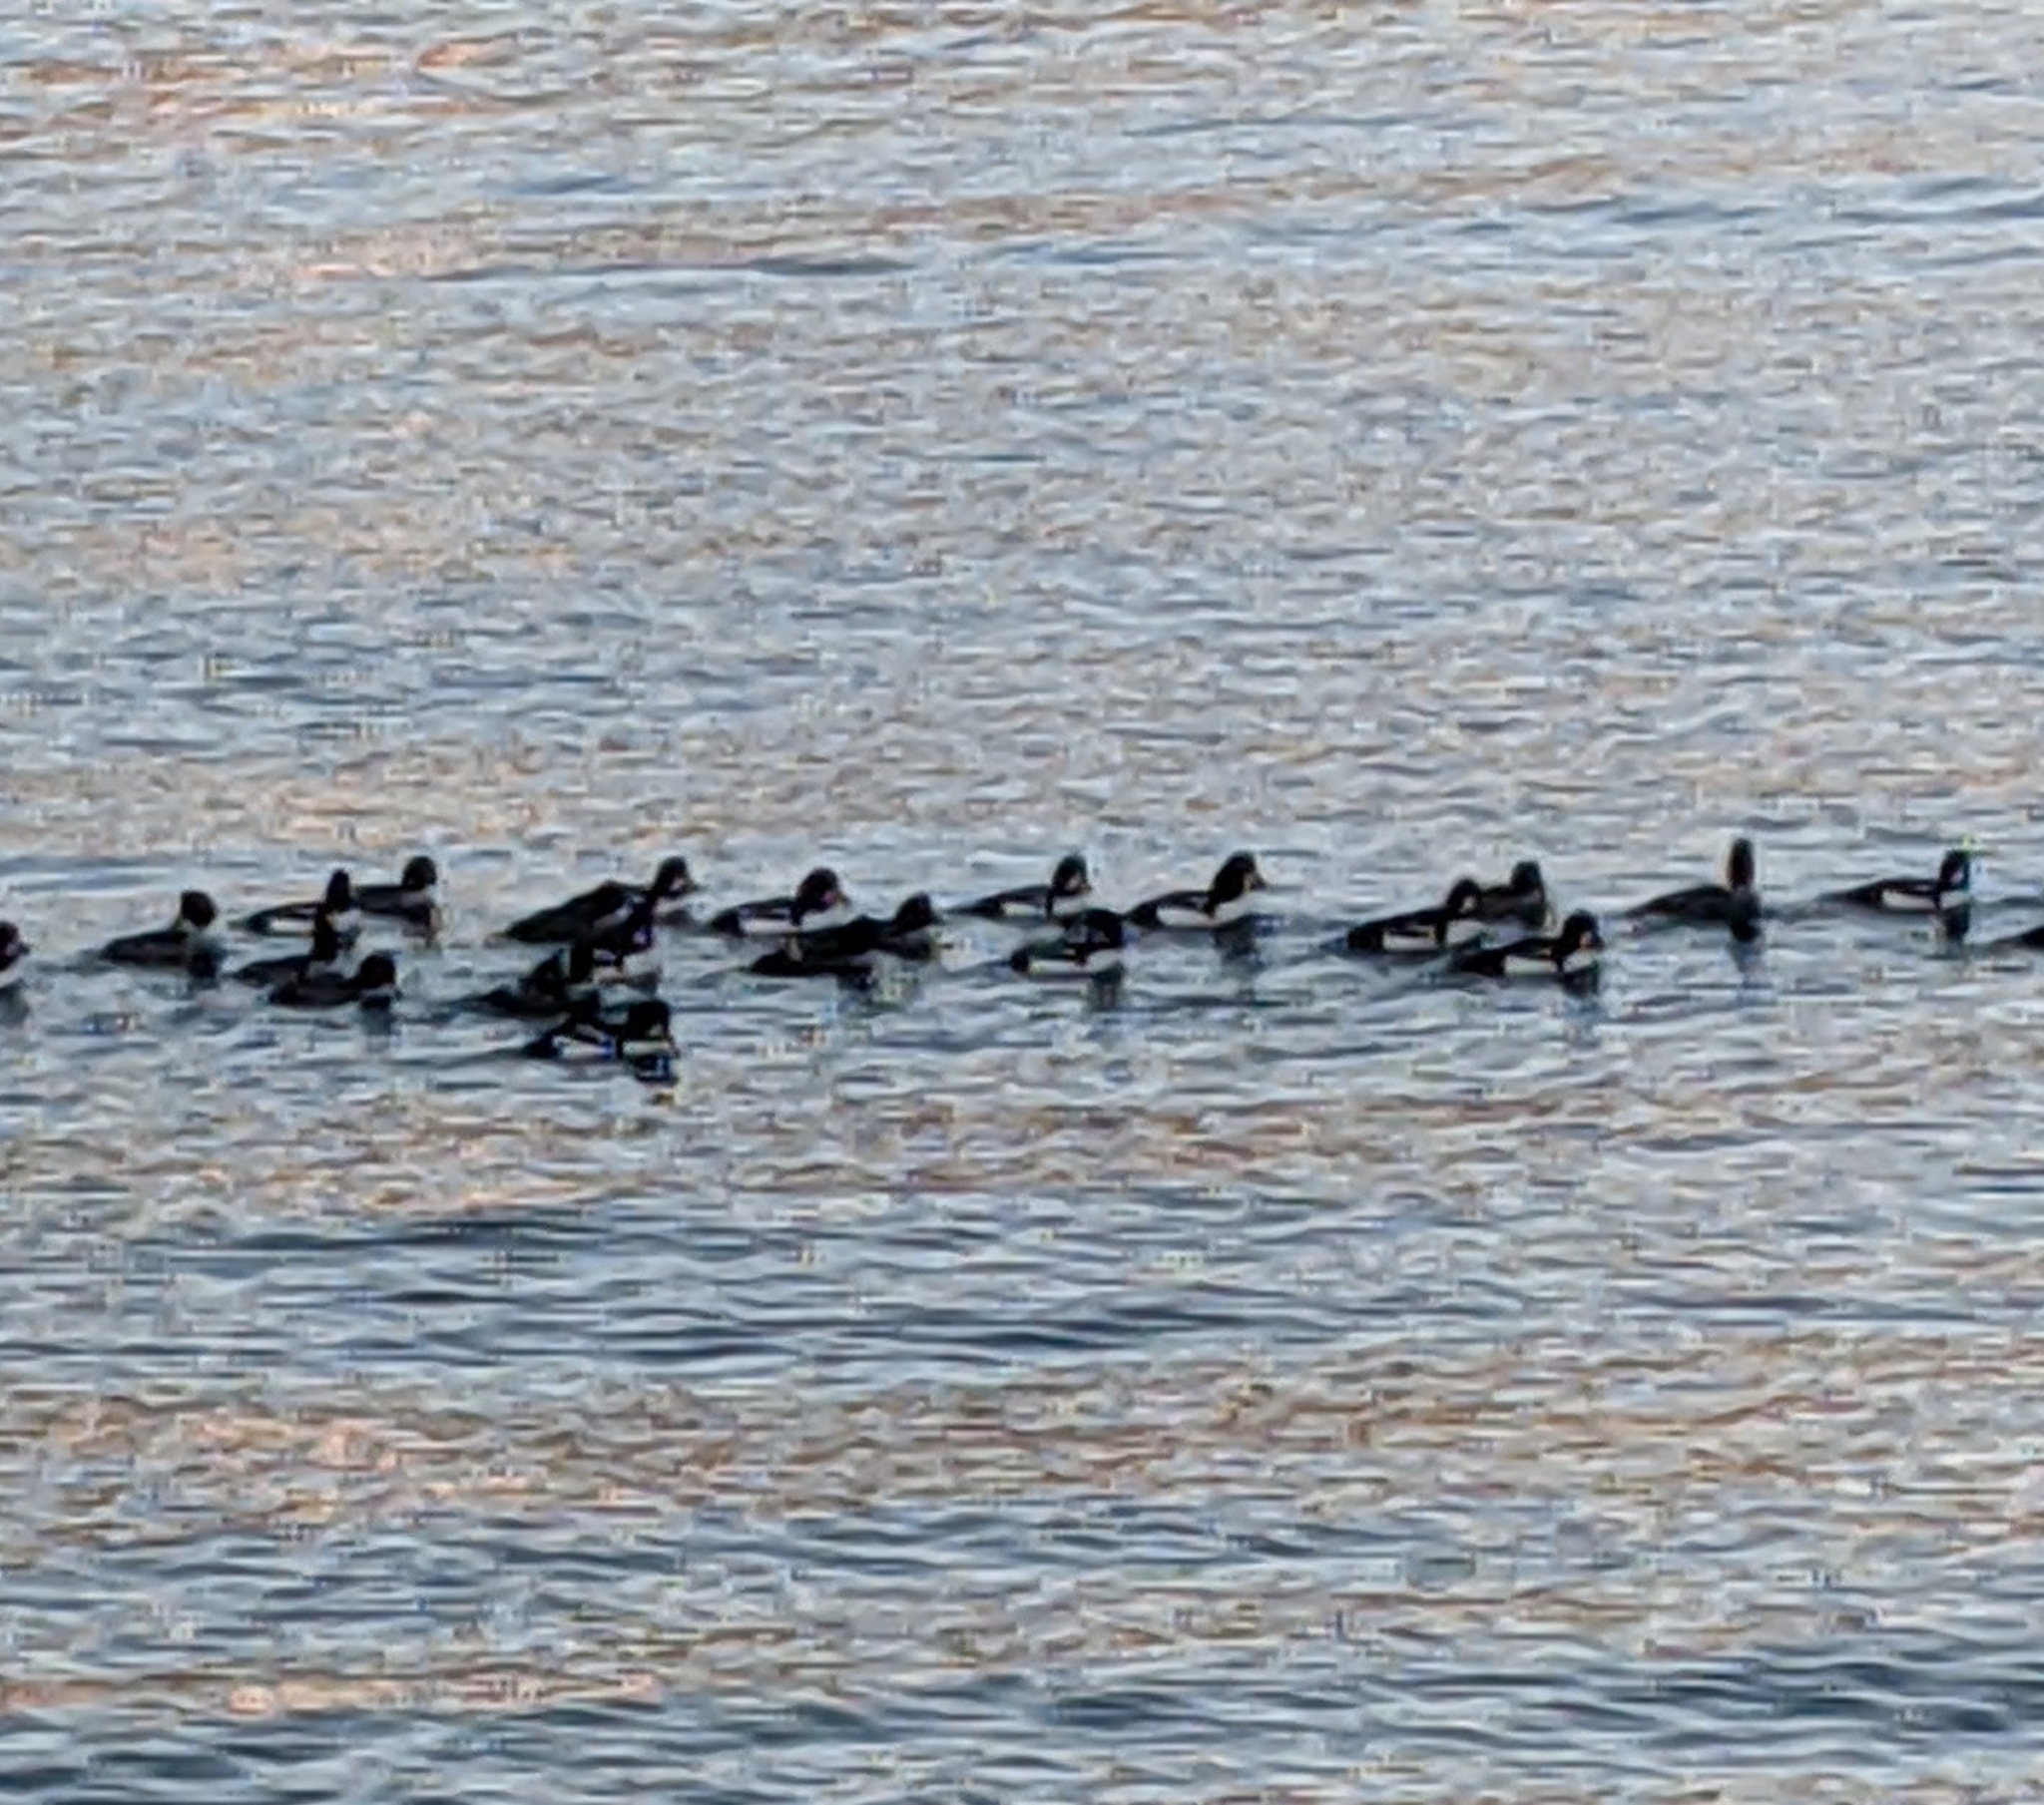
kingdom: Animalia
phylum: Chordata
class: Aves
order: Anseriformes
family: Anatidae
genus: Bucephala
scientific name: Bucephala islandica
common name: Barrow's goldeneye
